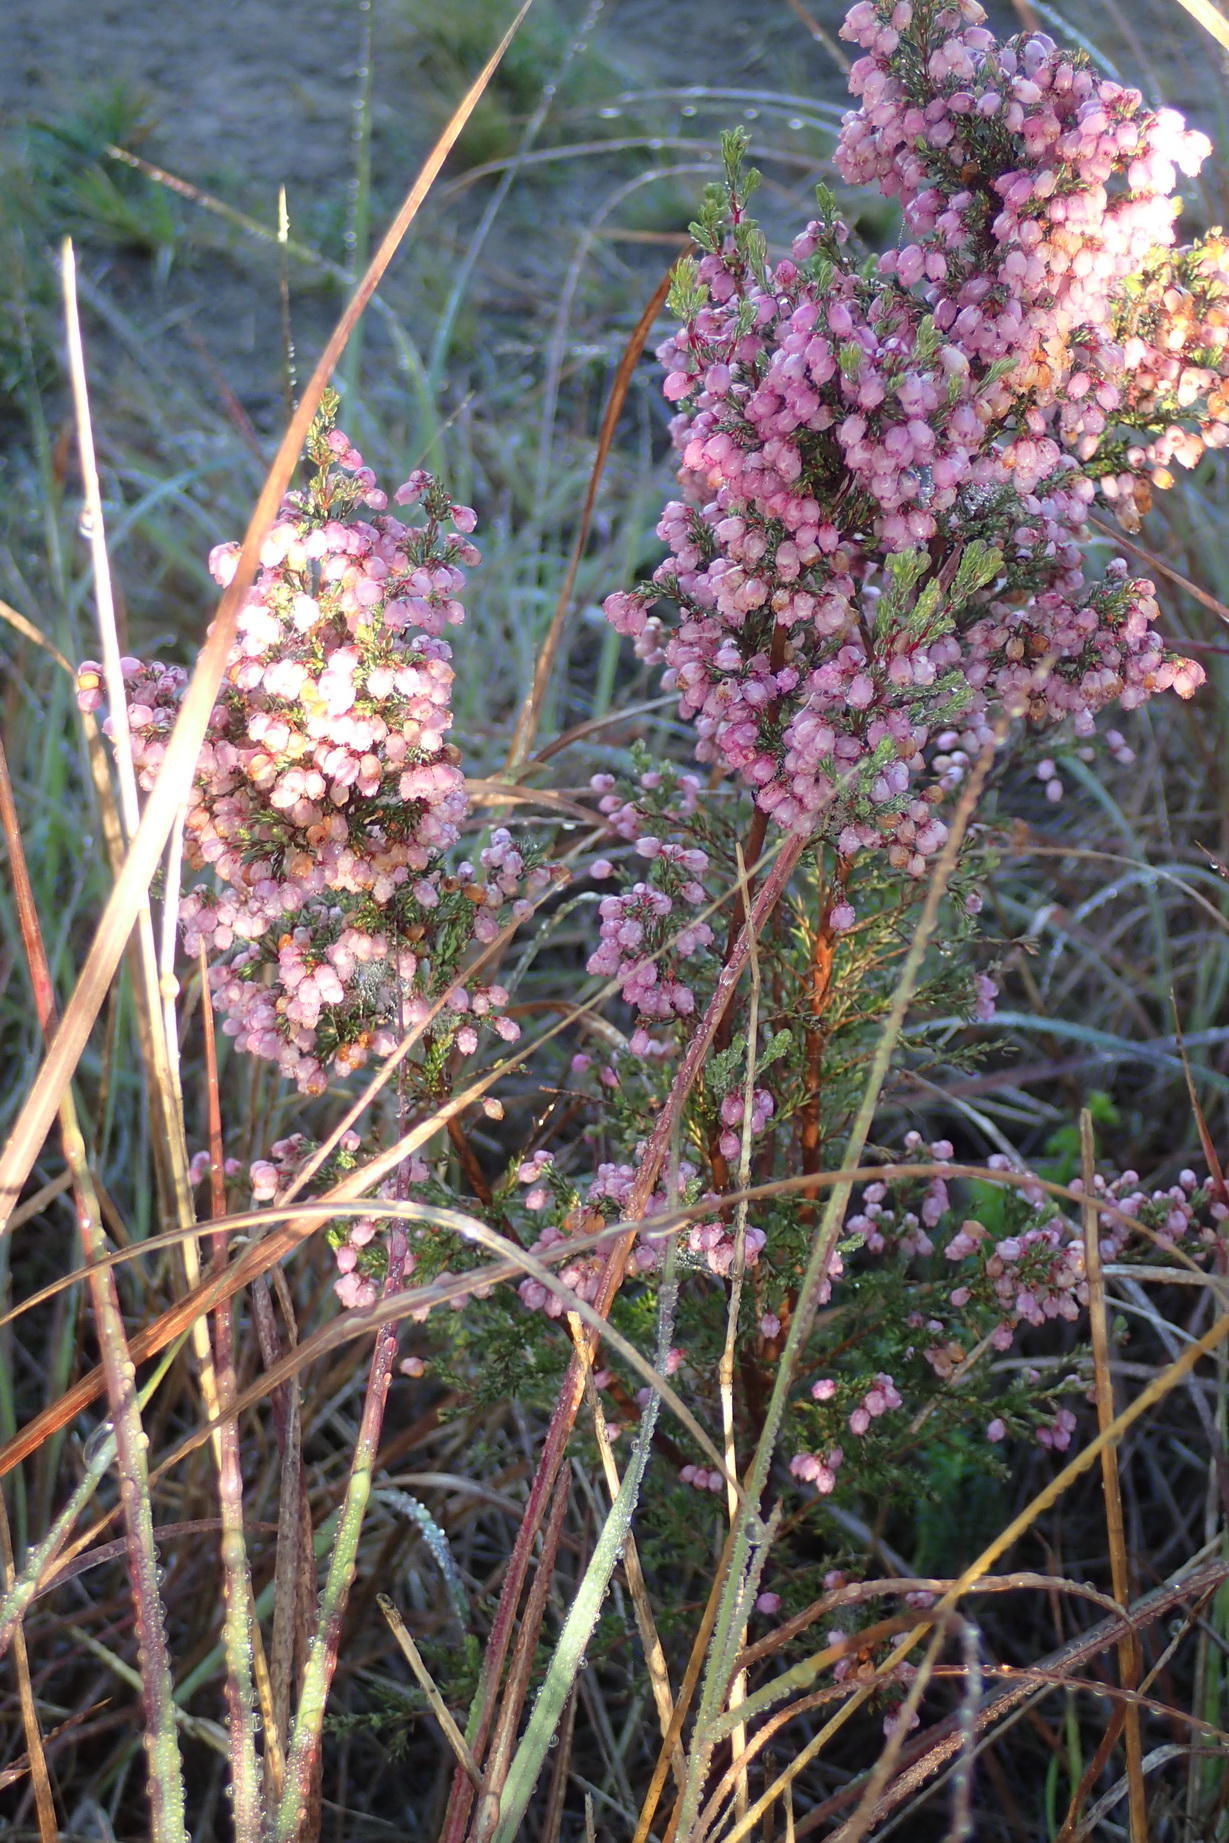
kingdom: Plantae
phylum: Tracheophyta
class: Magnoliopsida
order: Ericales
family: Ericaceae
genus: Erica
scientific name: Erica gracilis
